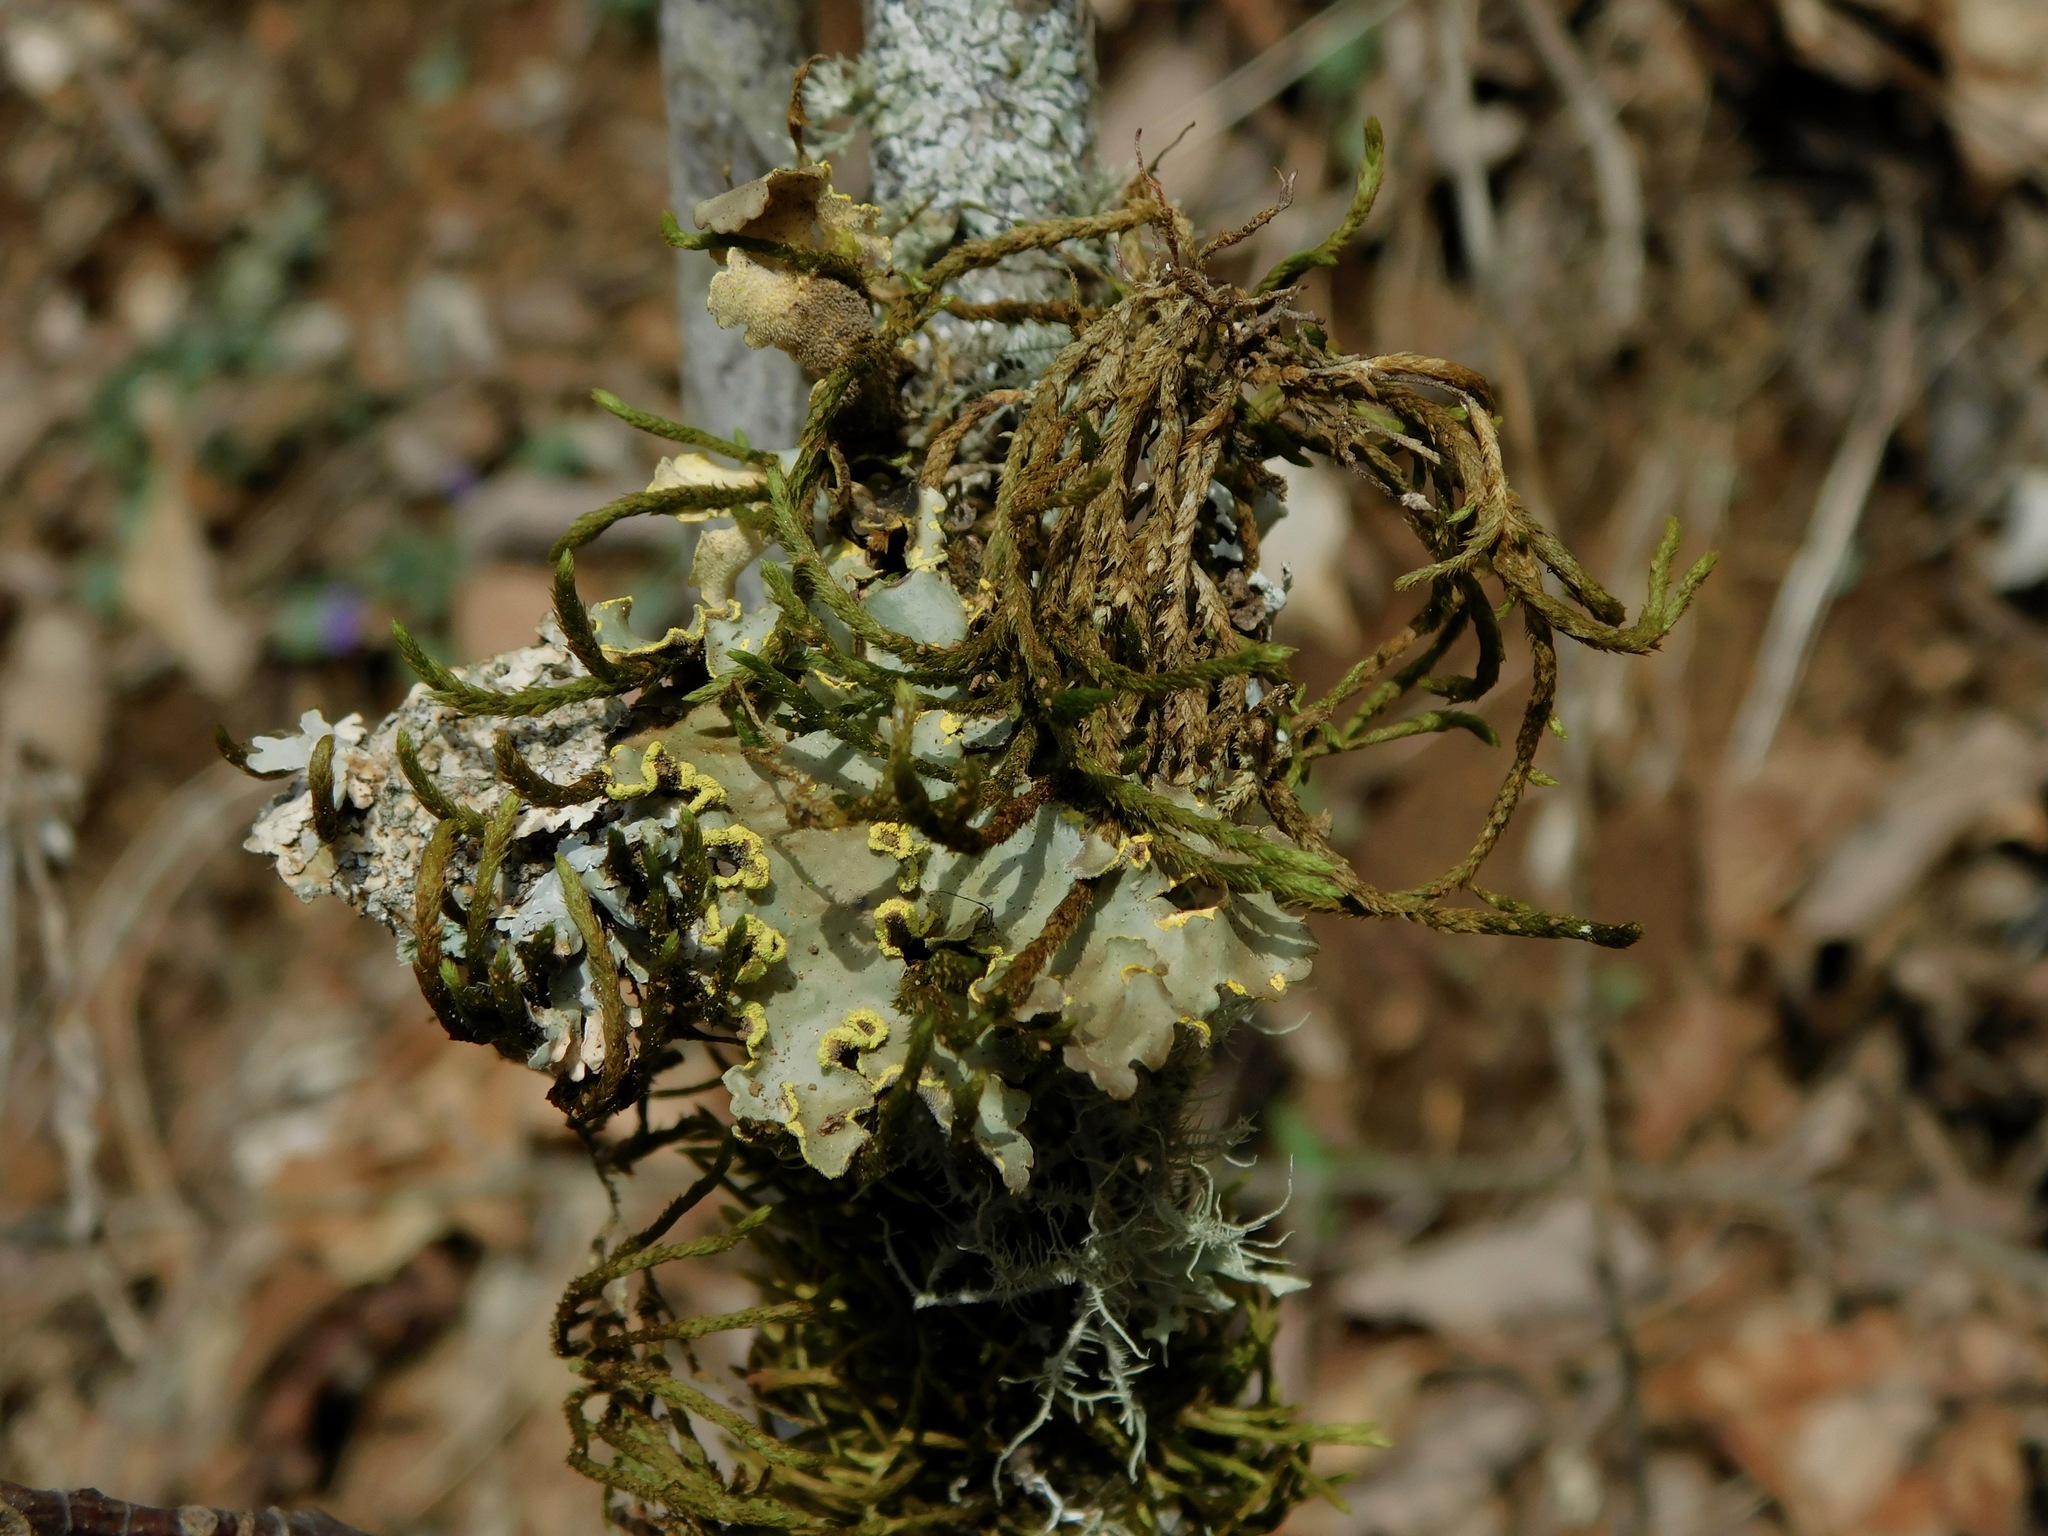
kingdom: Fungi
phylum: Ascomycota
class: Lecanoromycetes
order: Peltigerales
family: Lobariaceae
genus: Pseudocyphellaria
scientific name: Pseudocyphellaria aurata
